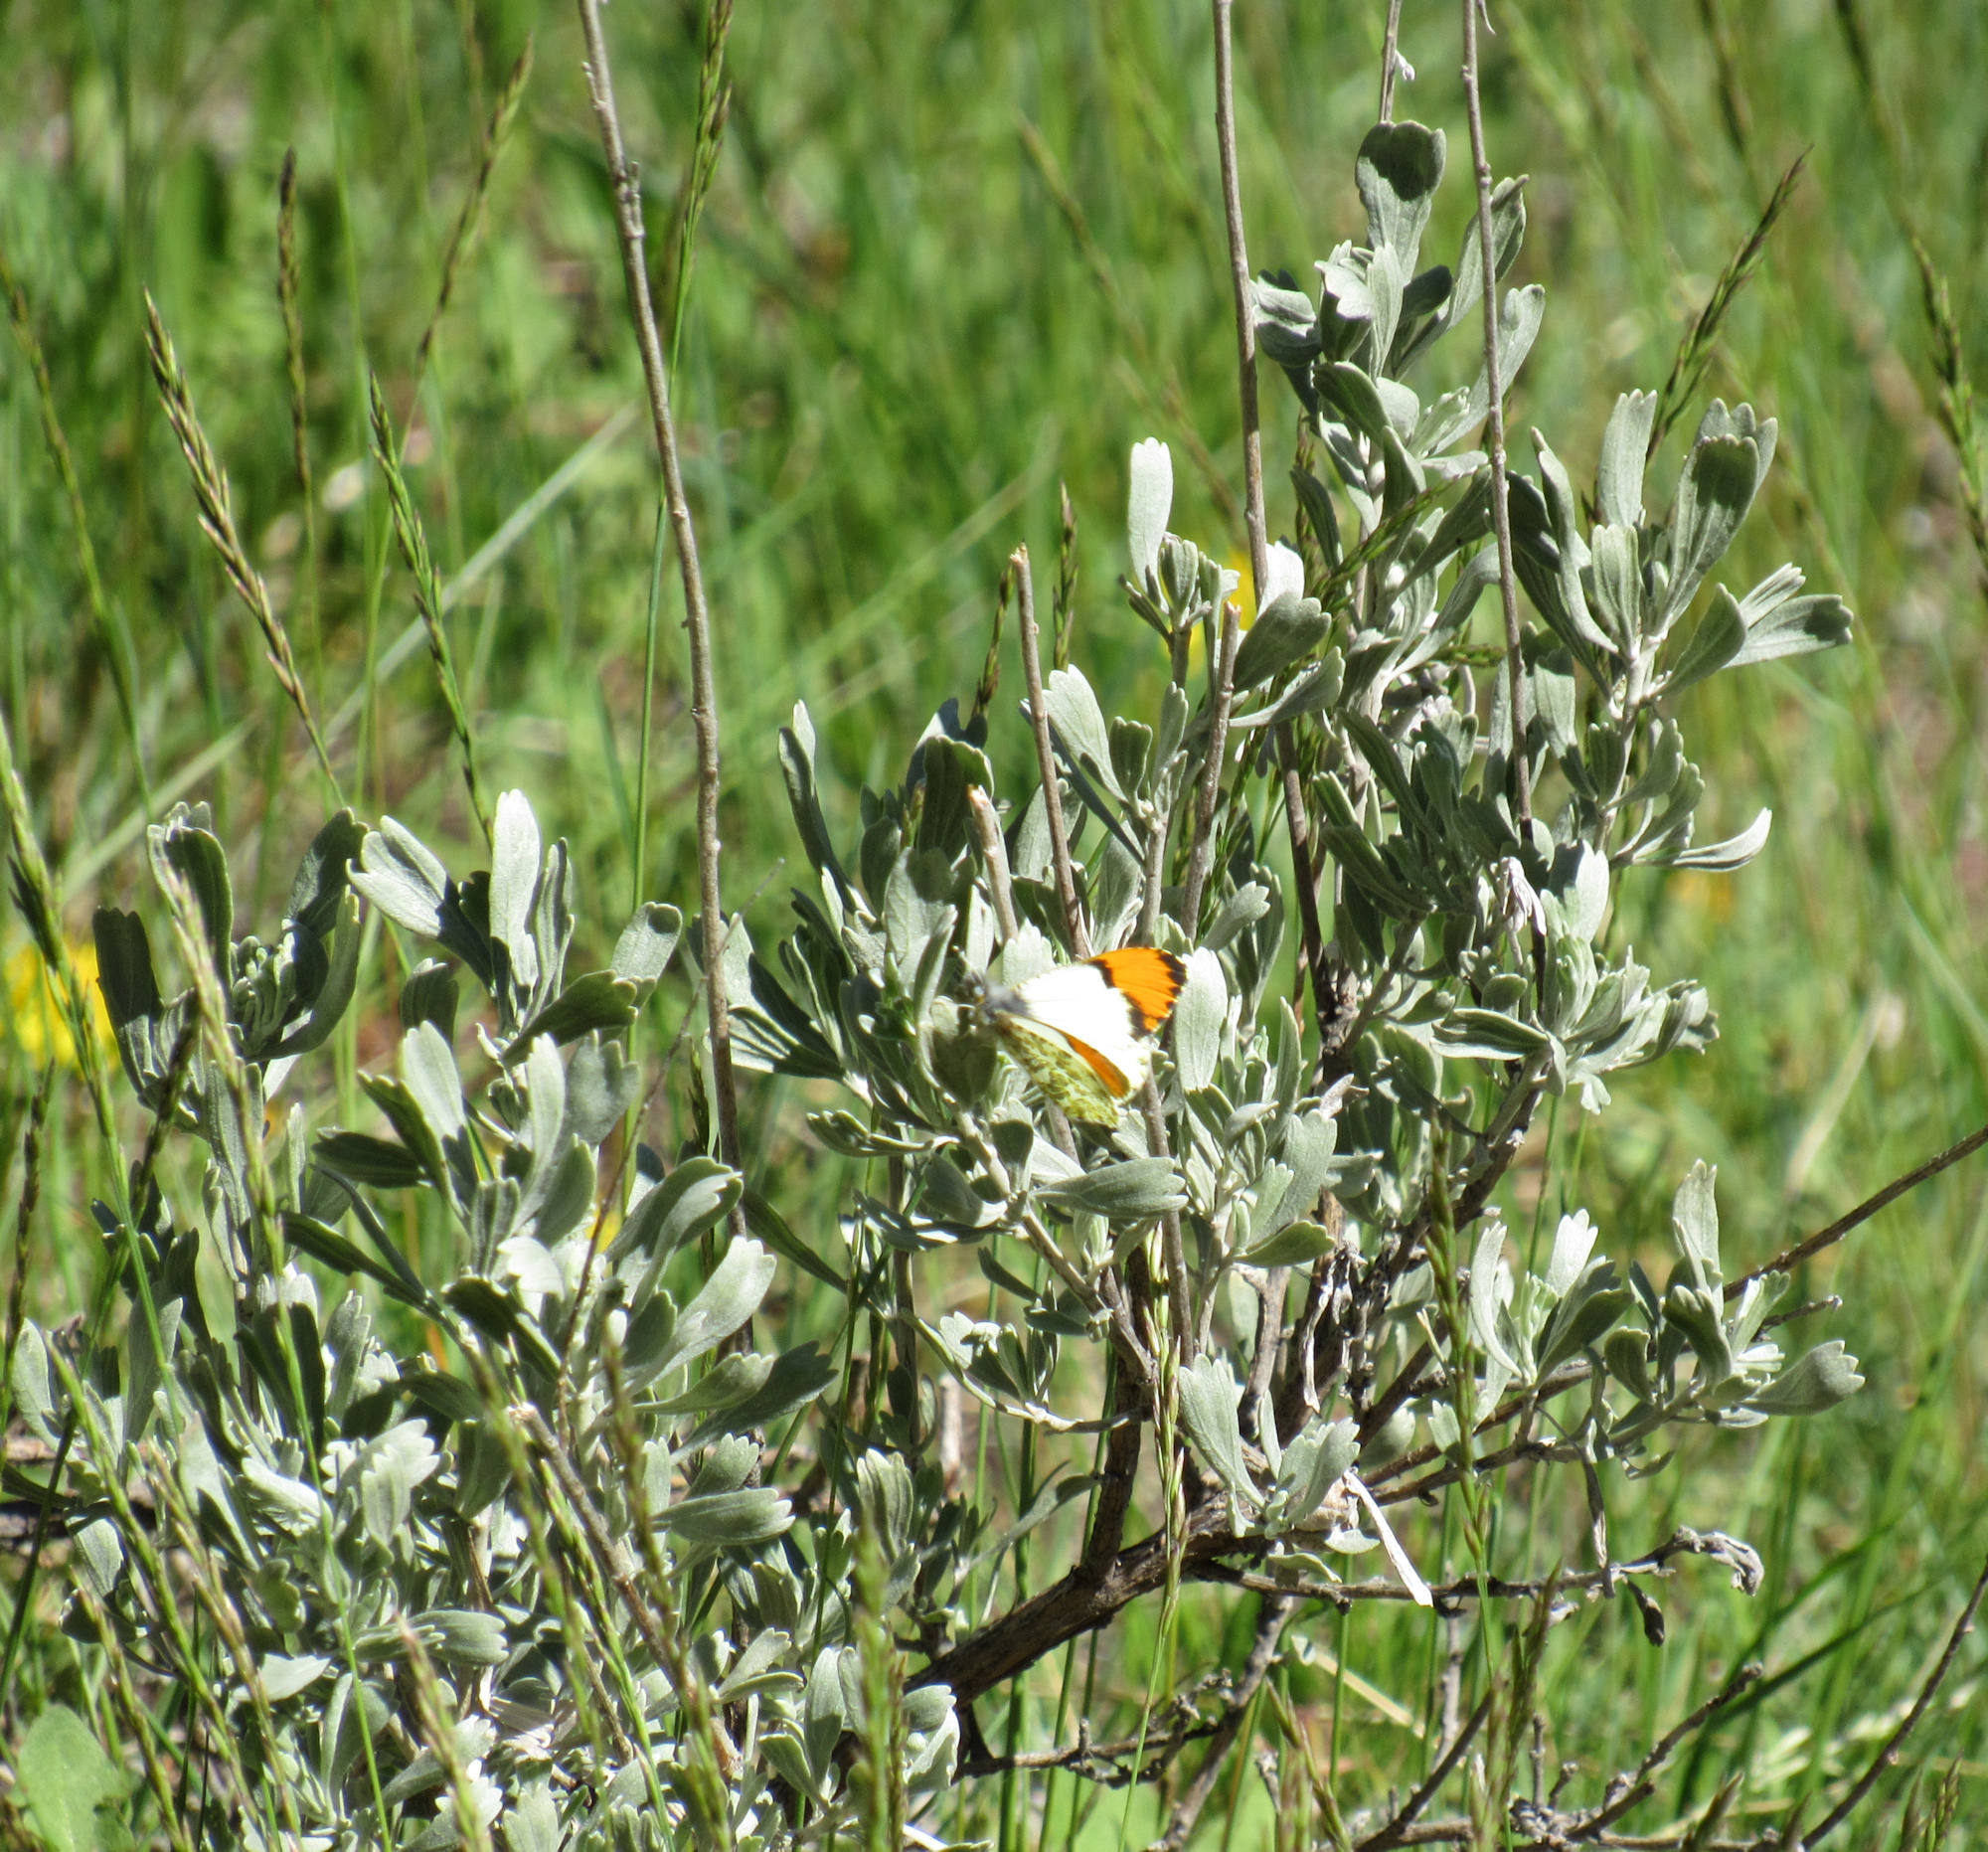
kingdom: Plantae
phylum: Tracheophyta
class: Magnoliopsida
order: Asterales
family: Asteraceae
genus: Artemisia
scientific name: Artemisia tridentata
